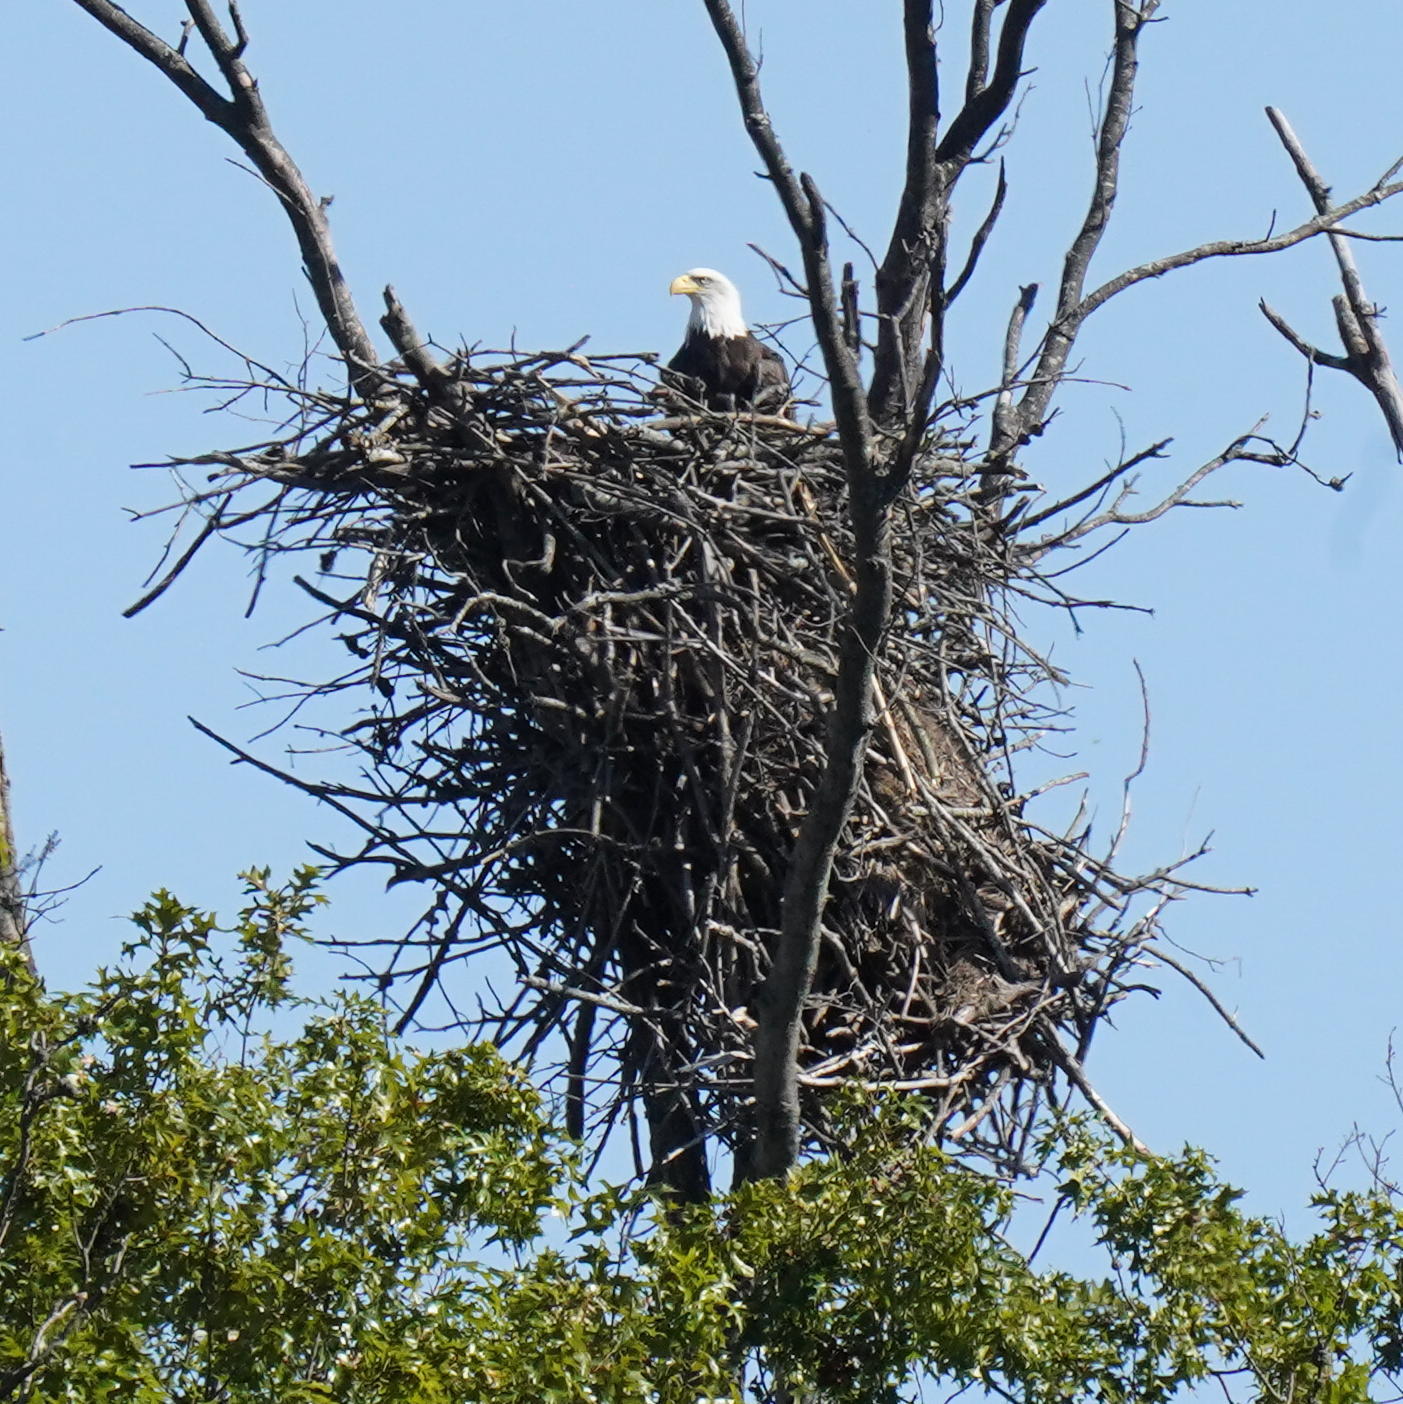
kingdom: Animalia
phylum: Chordata
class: Aves
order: Accipitriformes
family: Accipitridae
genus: Haliaeetus
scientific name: Haliaeetus leucocephalus
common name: Bald eagle
